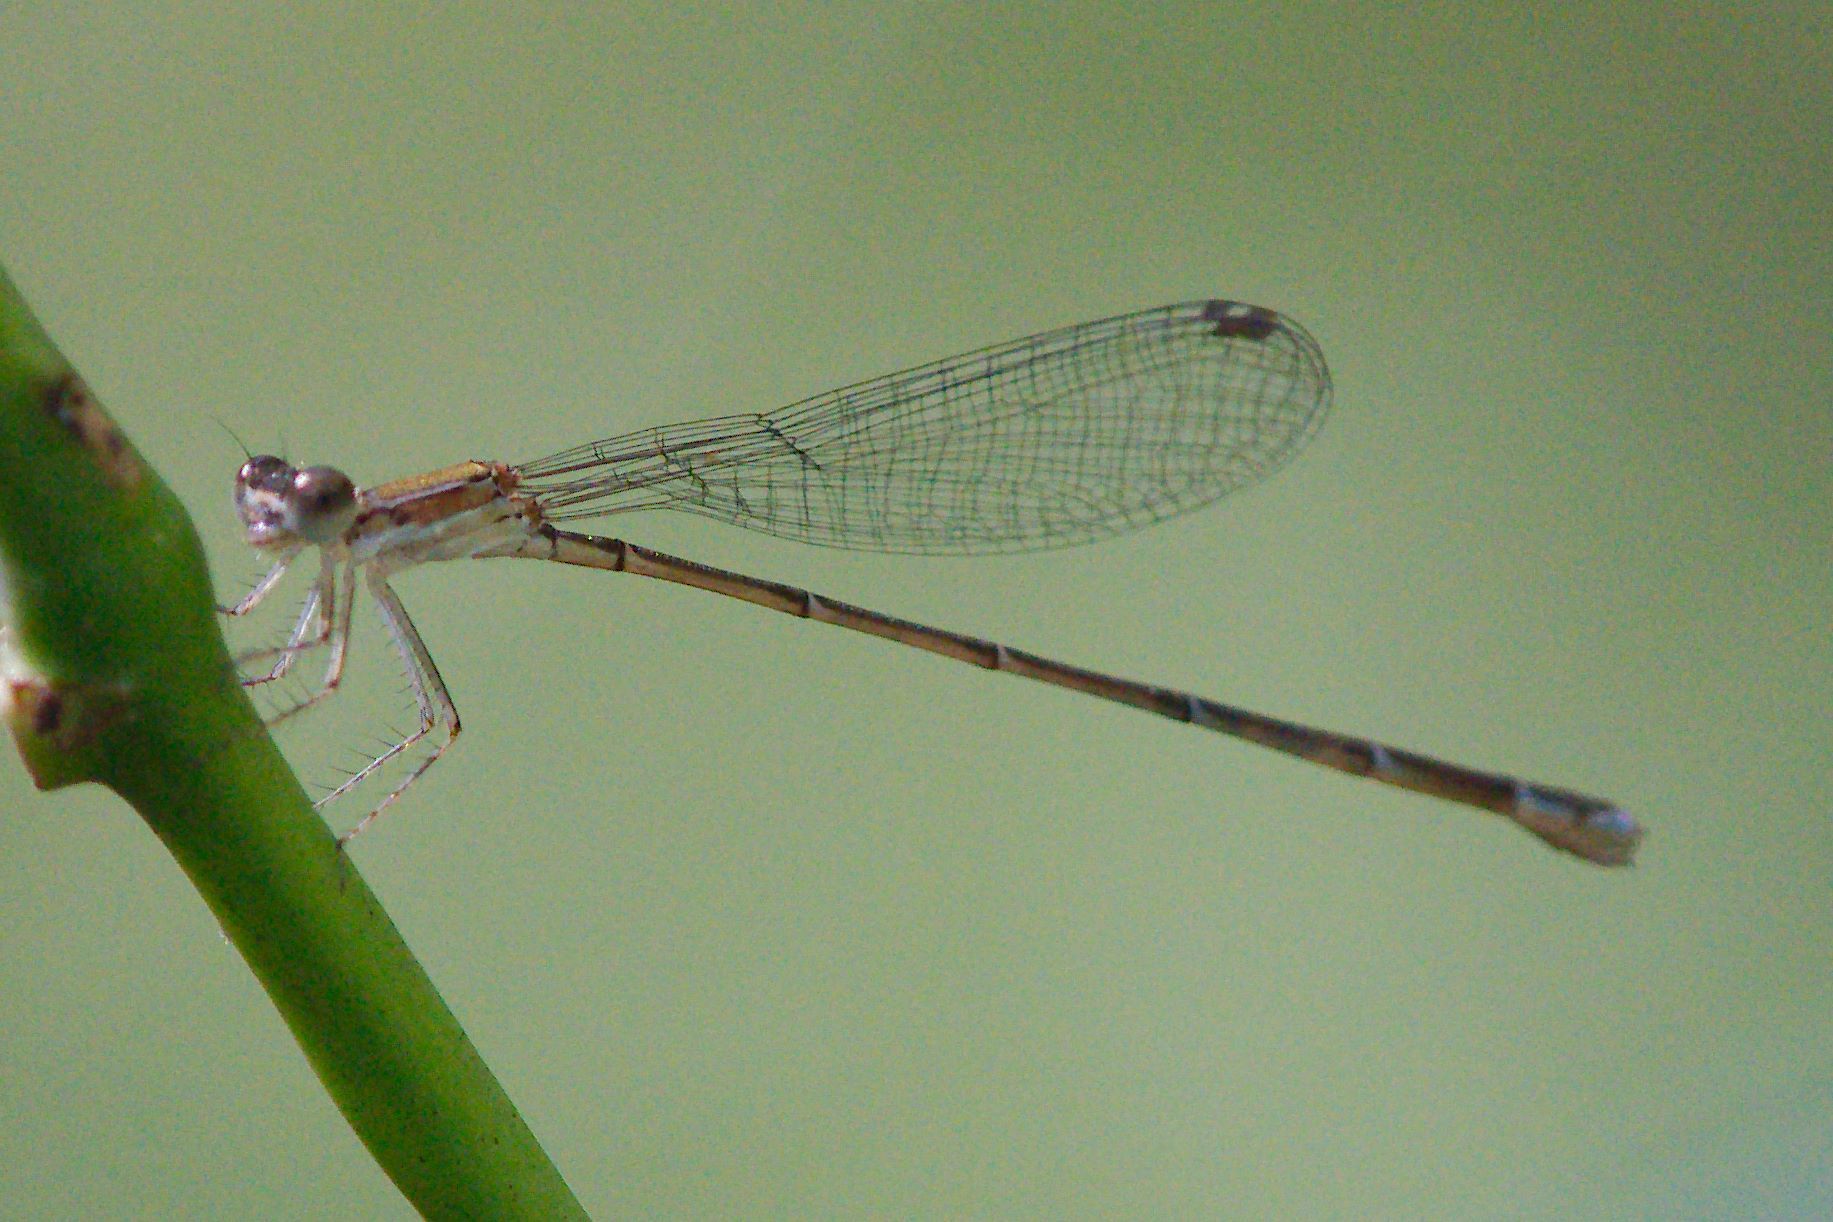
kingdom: Animalia
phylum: Arthropoda
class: Insecta
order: Odonata
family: Coenagrionidae
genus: Nehalennia
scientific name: Nehalennia pallidula
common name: Everglades sprite
